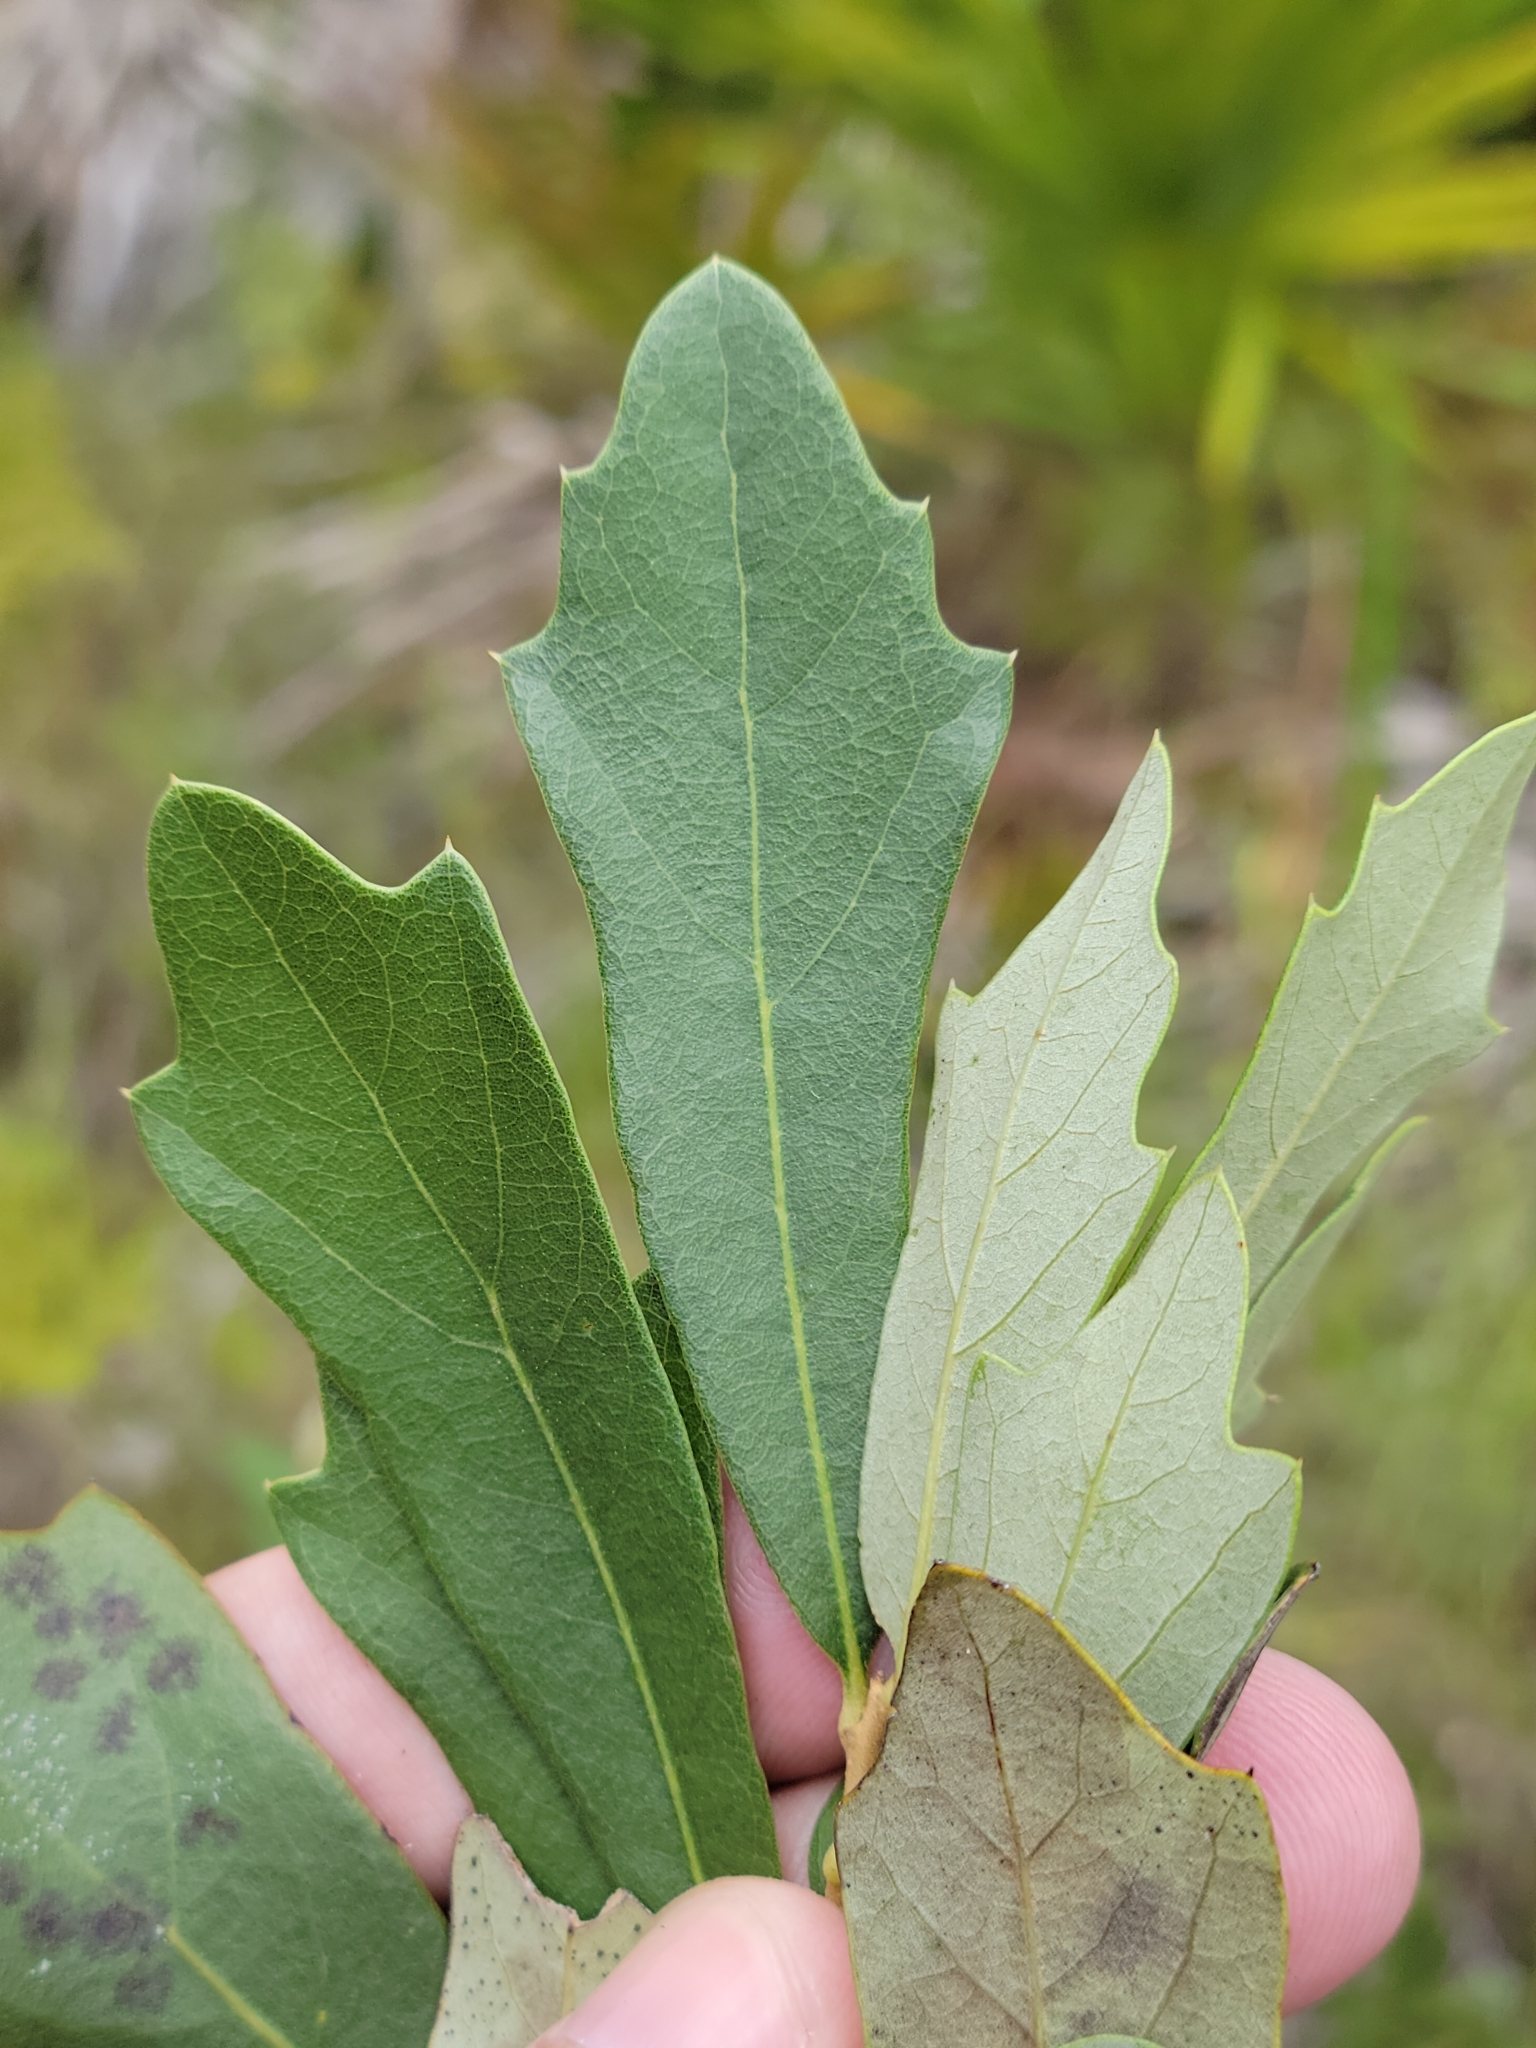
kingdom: Plantae
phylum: Tracheophyta
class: Magnoliopsida
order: Fagales
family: Fagaceae
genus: Quercus
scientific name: Quercus minima
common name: Dwarf live oak
